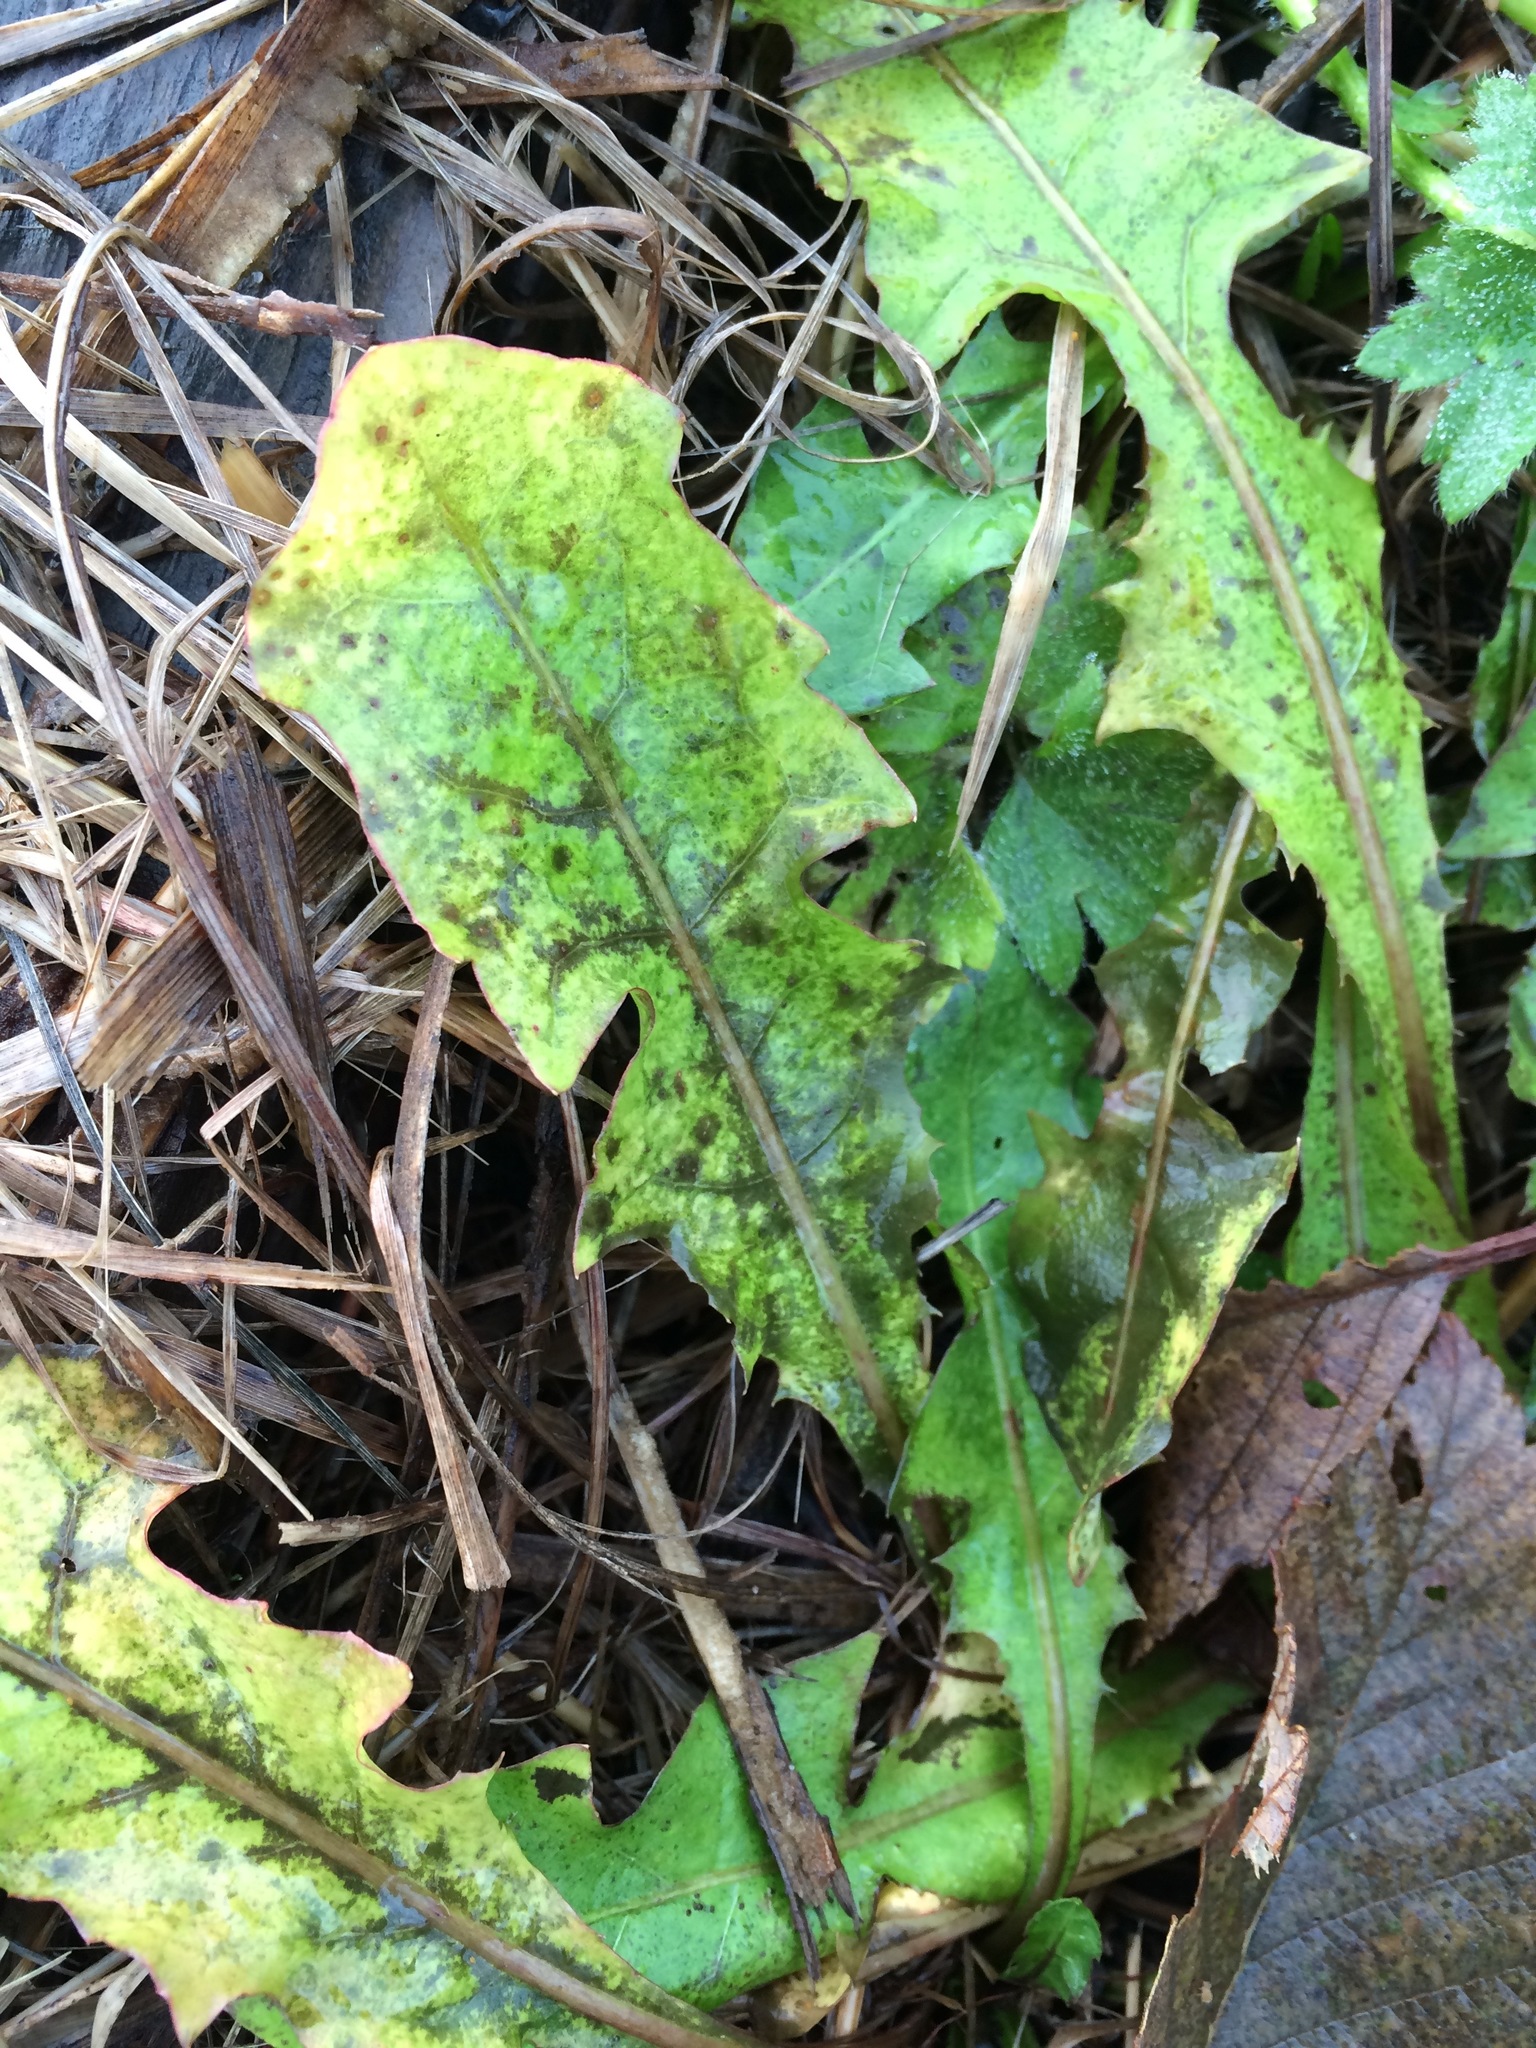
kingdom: Plantae
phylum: Tracheophyta
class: Magnoliopsida
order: Asterales
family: Asteraceae
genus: Taraxacum
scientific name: Taraxacum officinale
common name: Common dandelion
